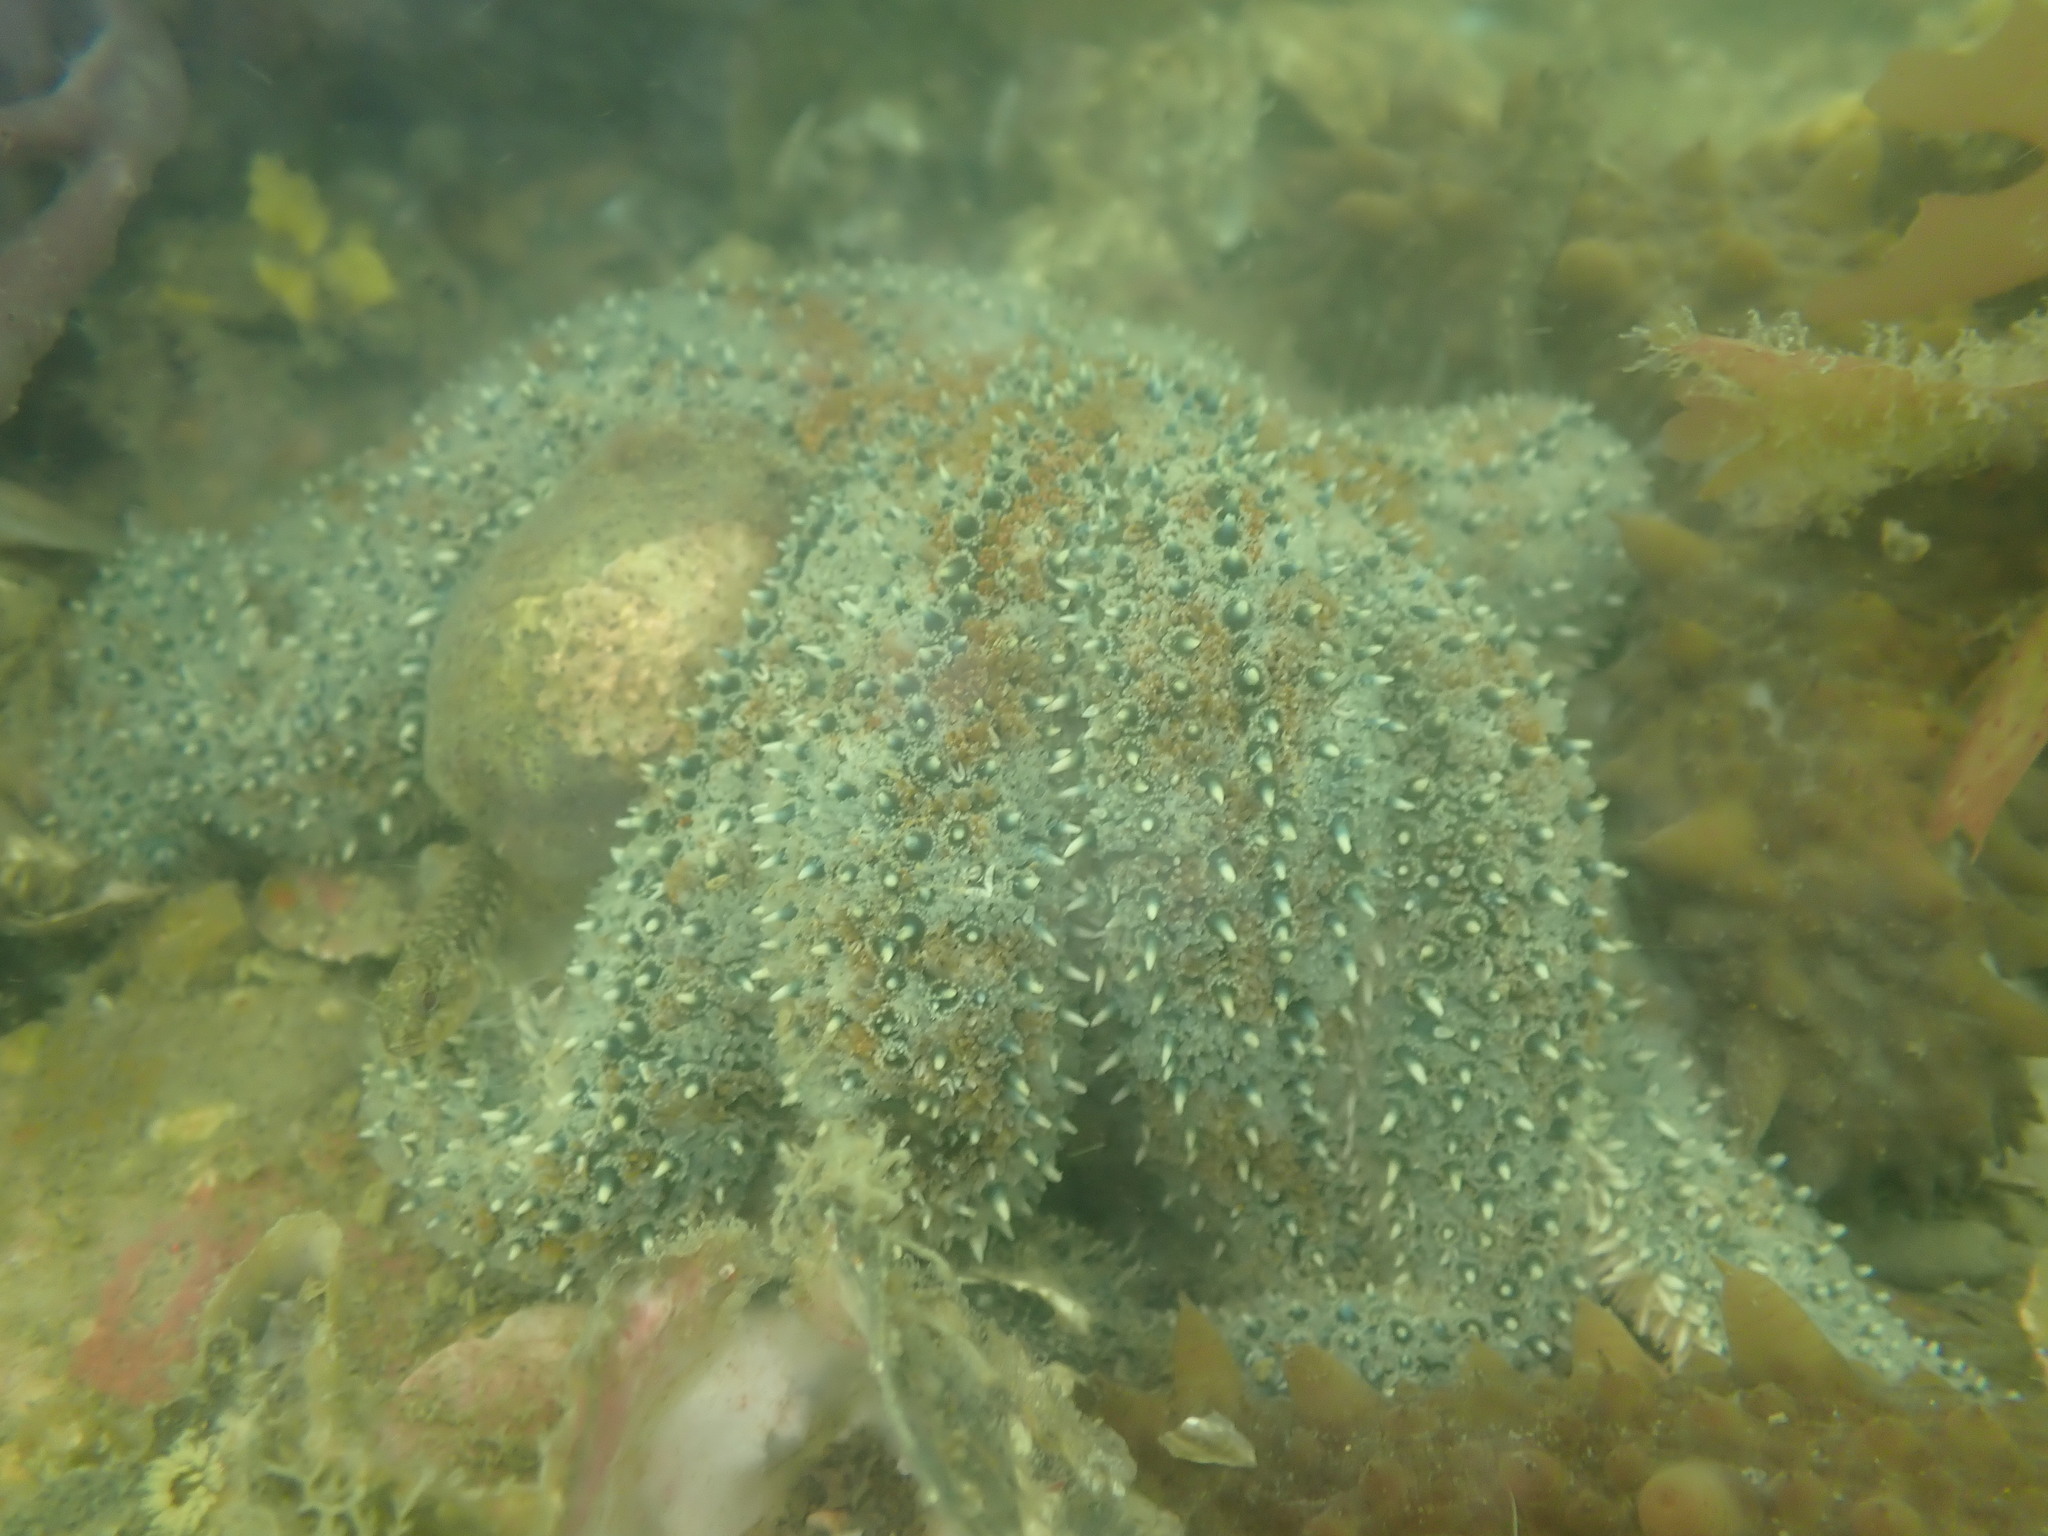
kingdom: Animalia
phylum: Echinodermata
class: Asteroidea
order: Forcipulatida
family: Asteriidae
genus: Coscinasterias
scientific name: Coscinasterias muricata
